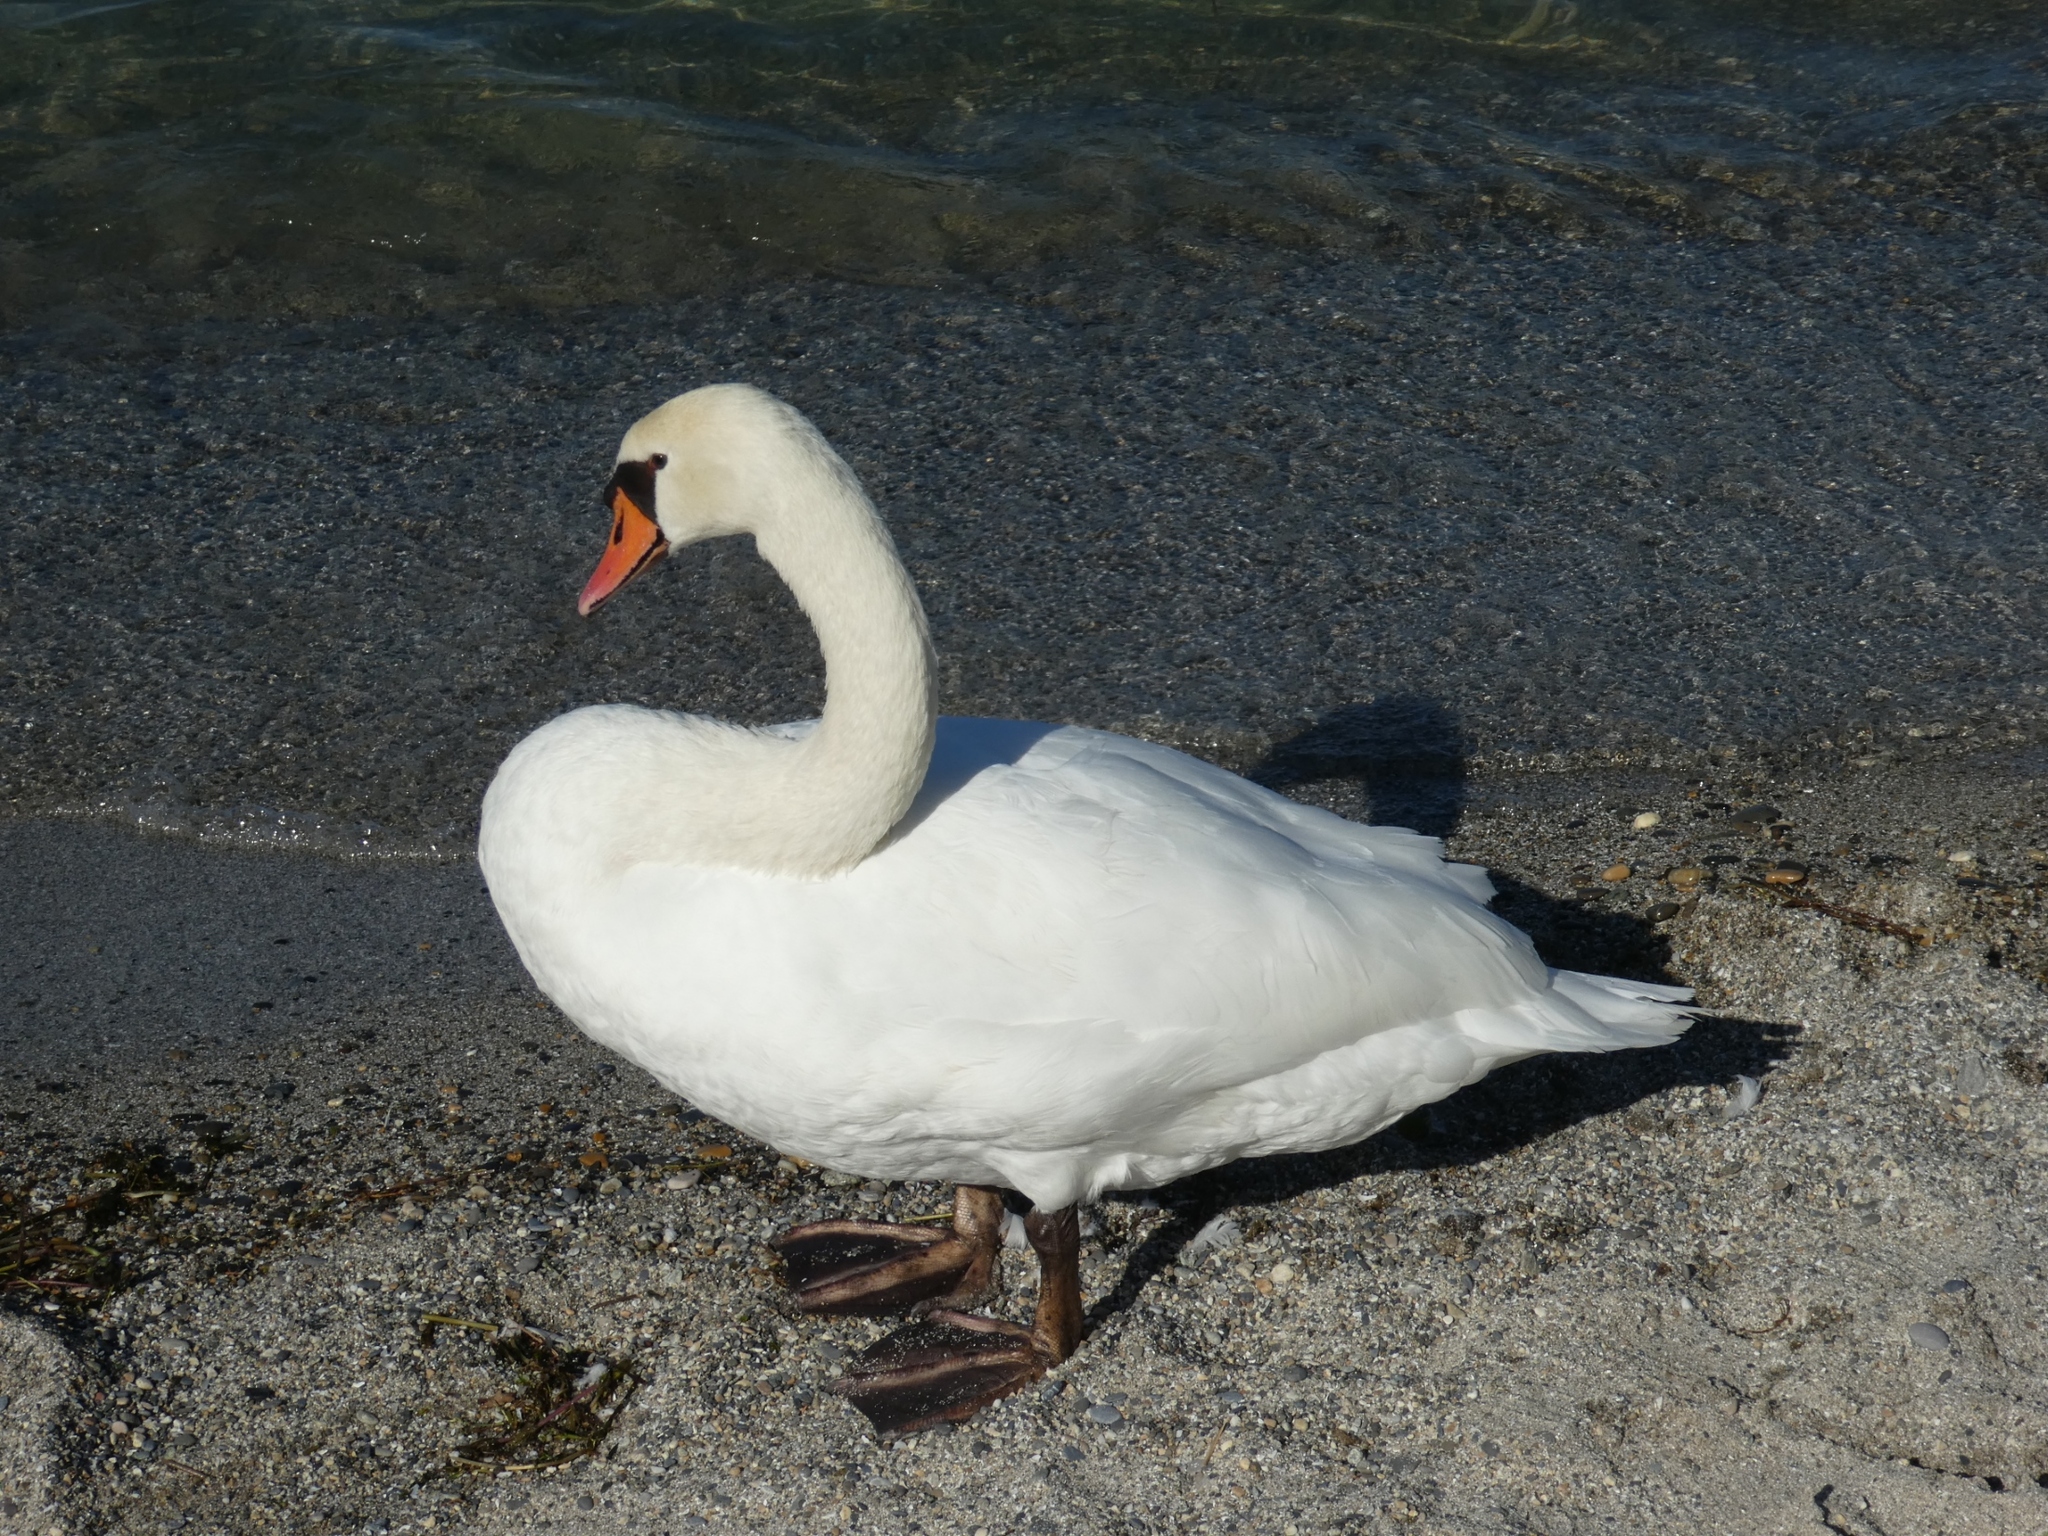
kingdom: Animalia
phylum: Chordata
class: Aves
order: Anseriformes
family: Anatidae
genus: Cygnus
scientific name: Cygnus olor
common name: Mute swan
